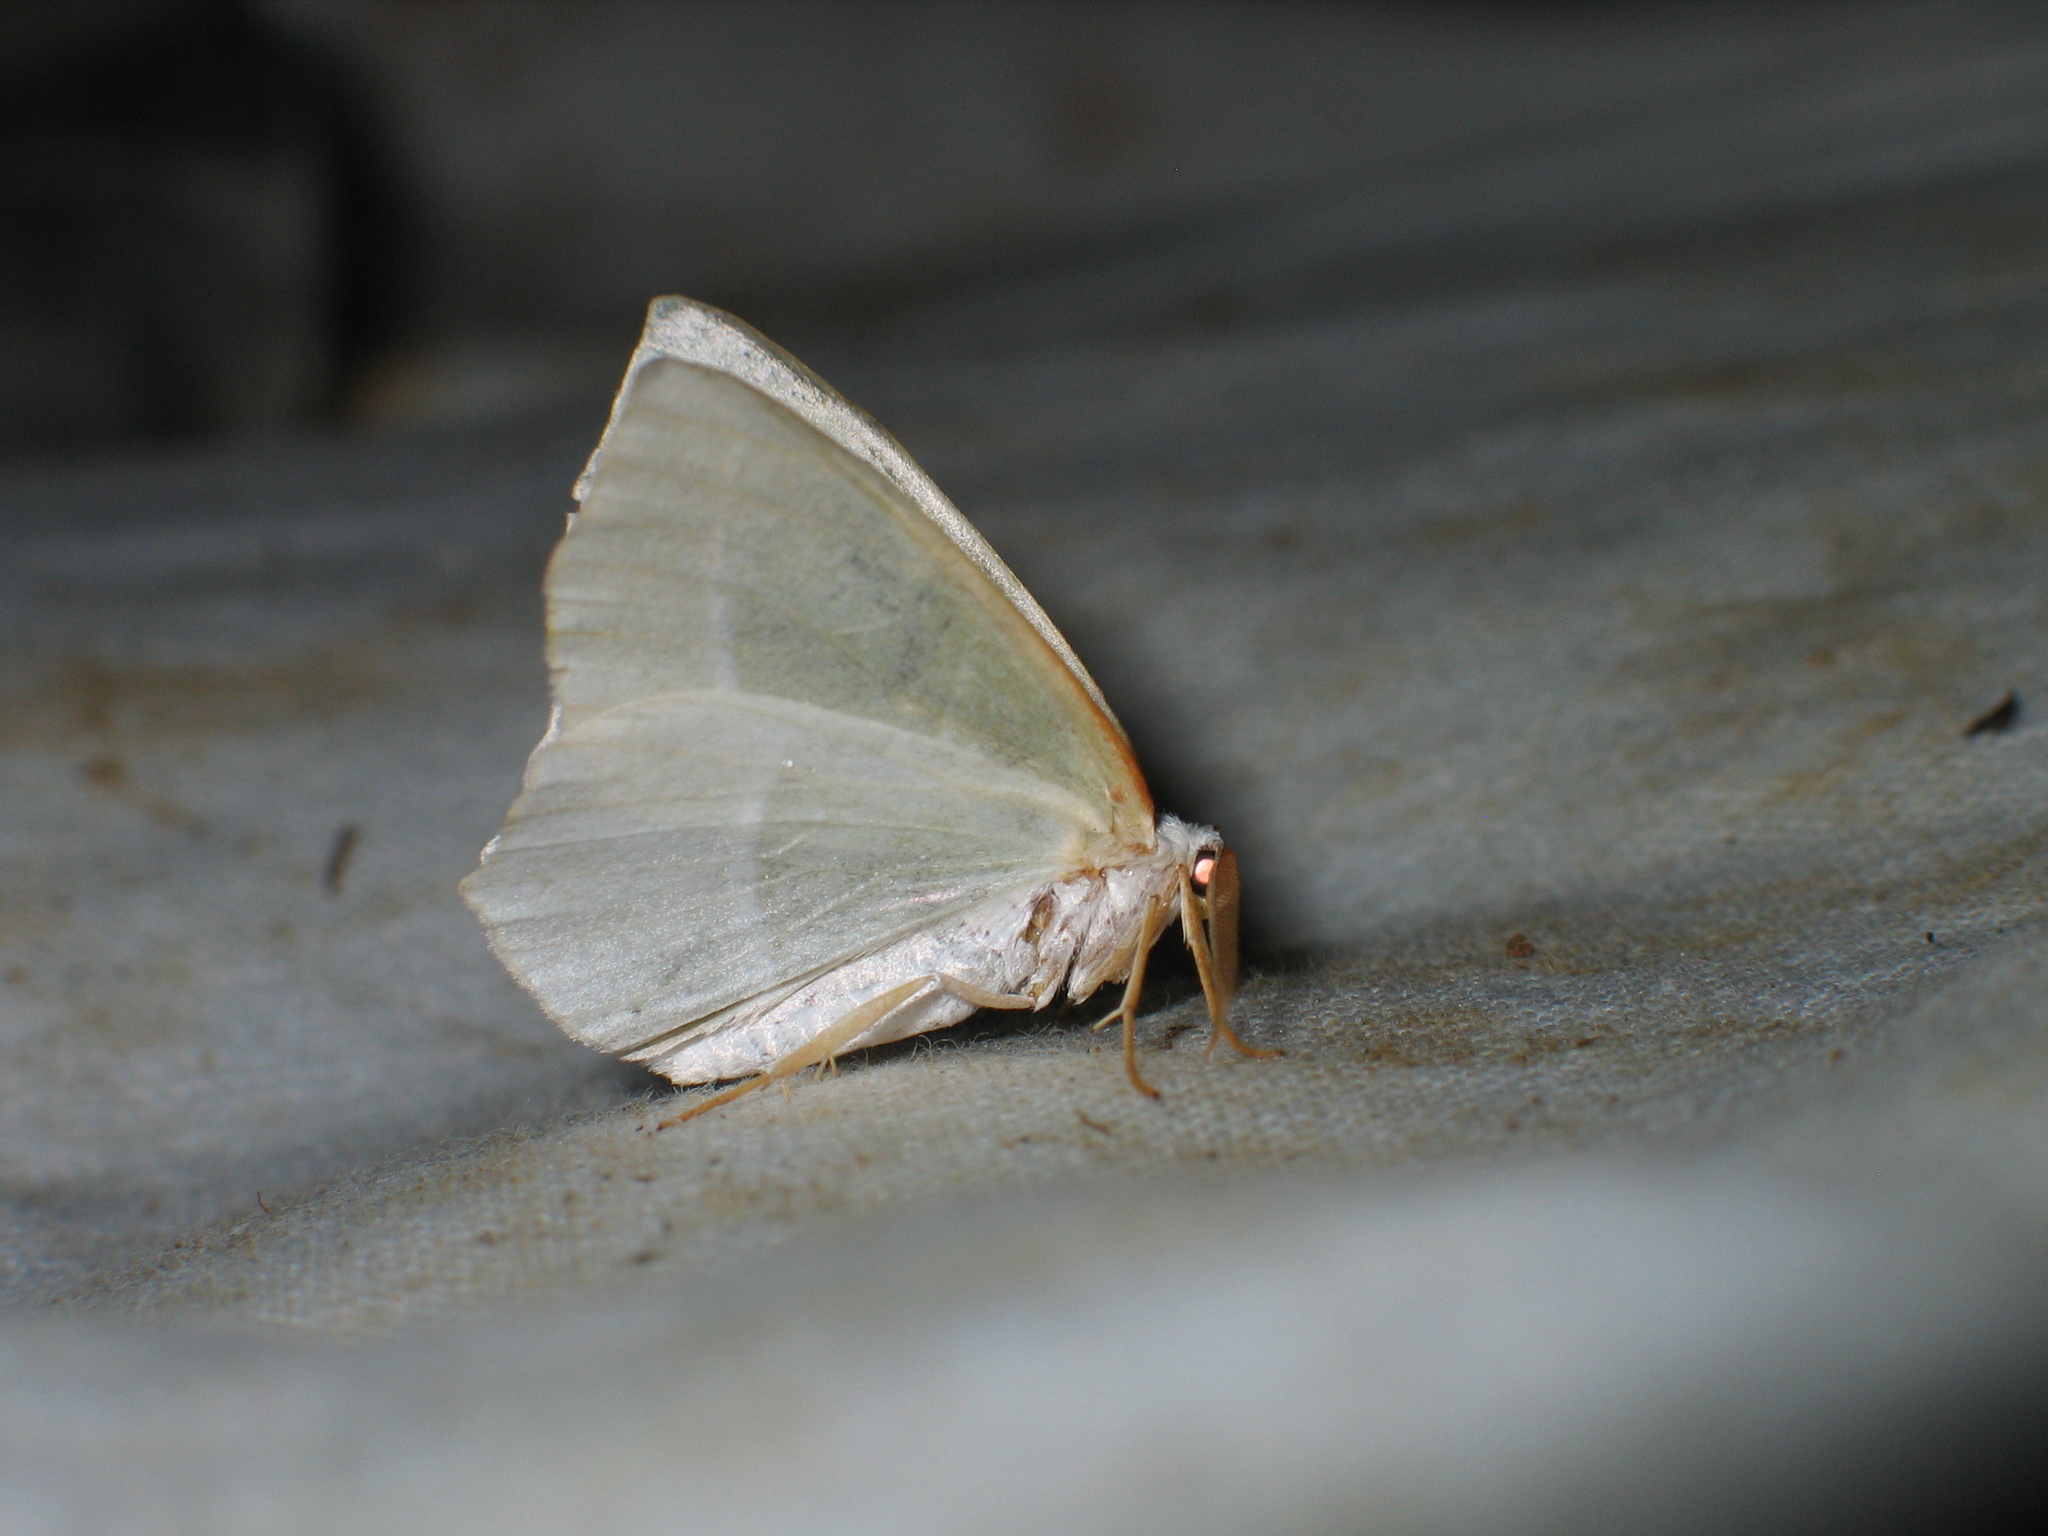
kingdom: Animalia
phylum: Arthropoda
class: Insecta
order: Lepidoptera
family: Geometridae
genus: Campaea
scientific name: Campaea margaritaria
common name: Light emerald
